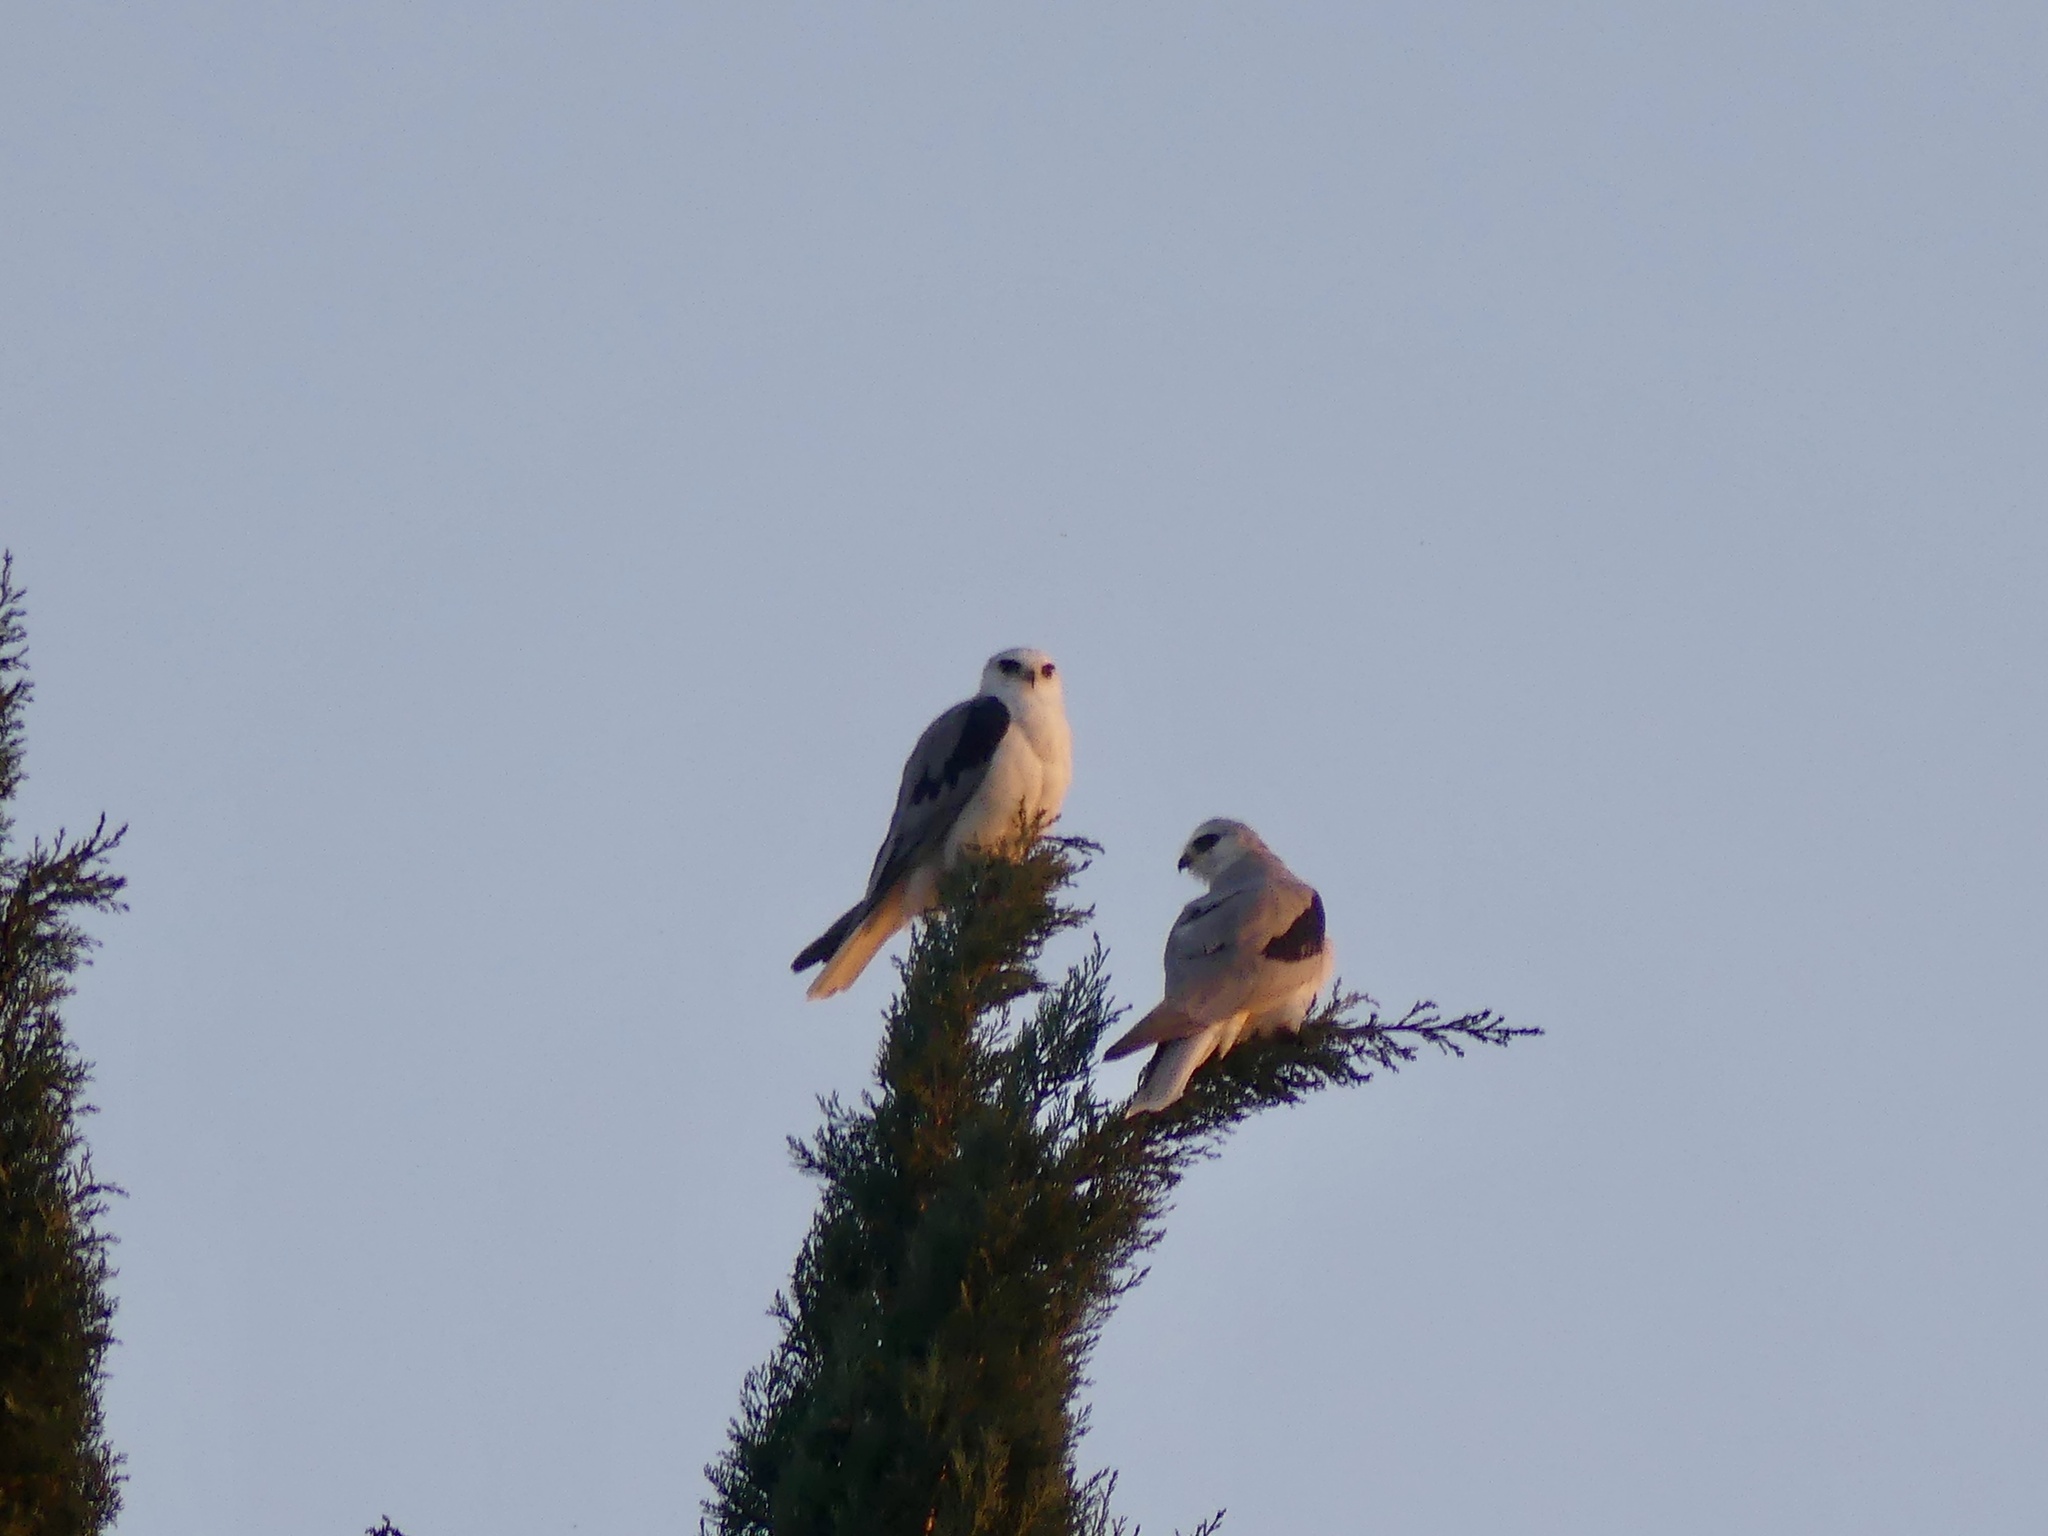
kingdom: Animalia
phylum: Chordata
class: Aves
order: Accipitriformes
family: Accipitridae
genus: Elanus
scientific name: Elanus leucurus
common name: White-tailed kite
